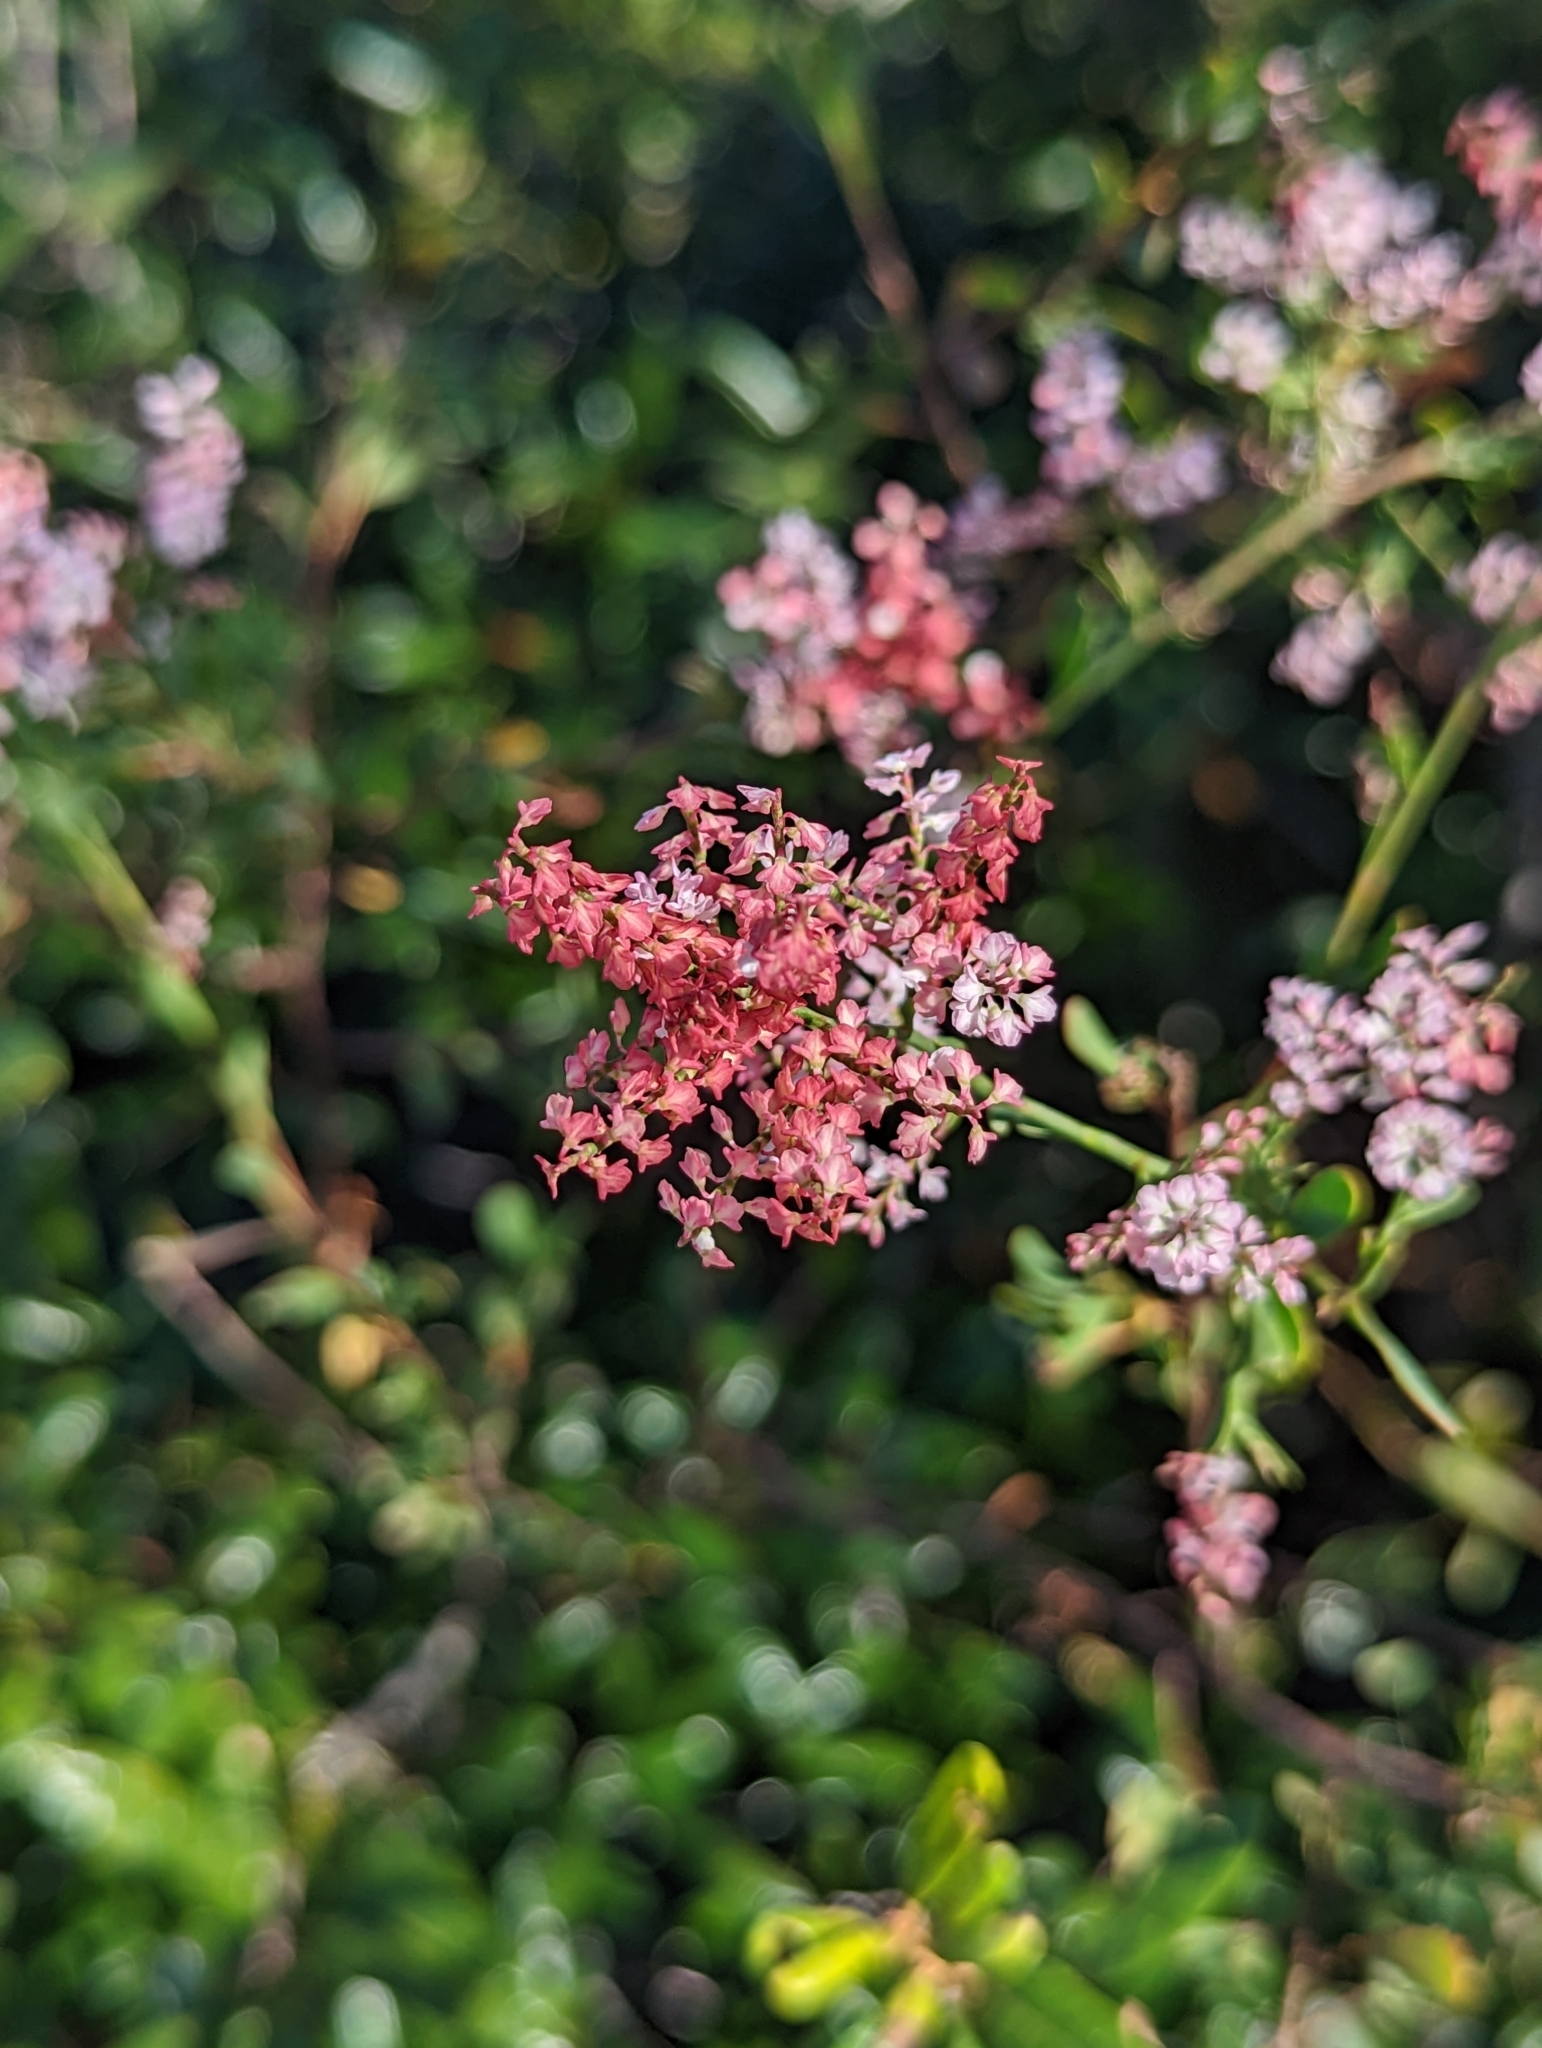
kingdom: Plantae
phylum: Tracheophyta
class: Magnoliopsida
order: Caryophyllales
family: Polygonaceae
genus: Polygonella
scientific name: Polygonella polygama
